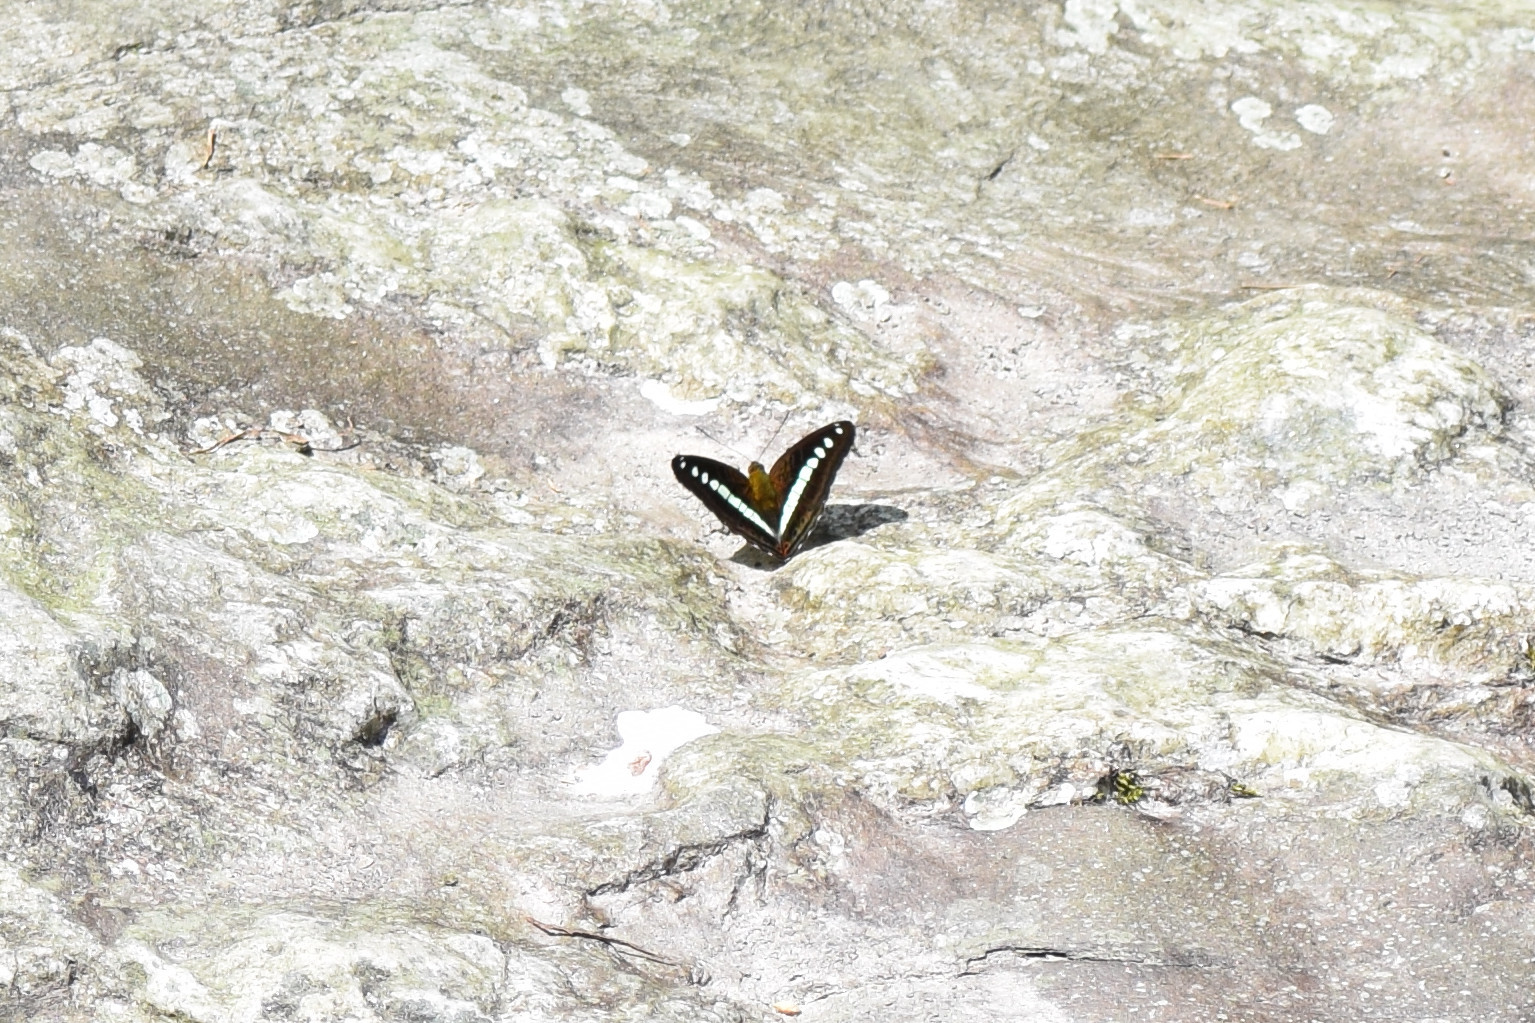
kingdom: Animalia
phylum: Arthropoda
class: Insecta
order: Lepidoptera
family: Nymphalidae
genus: Limenitis
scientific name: Limenitis Sumalia daraxa
